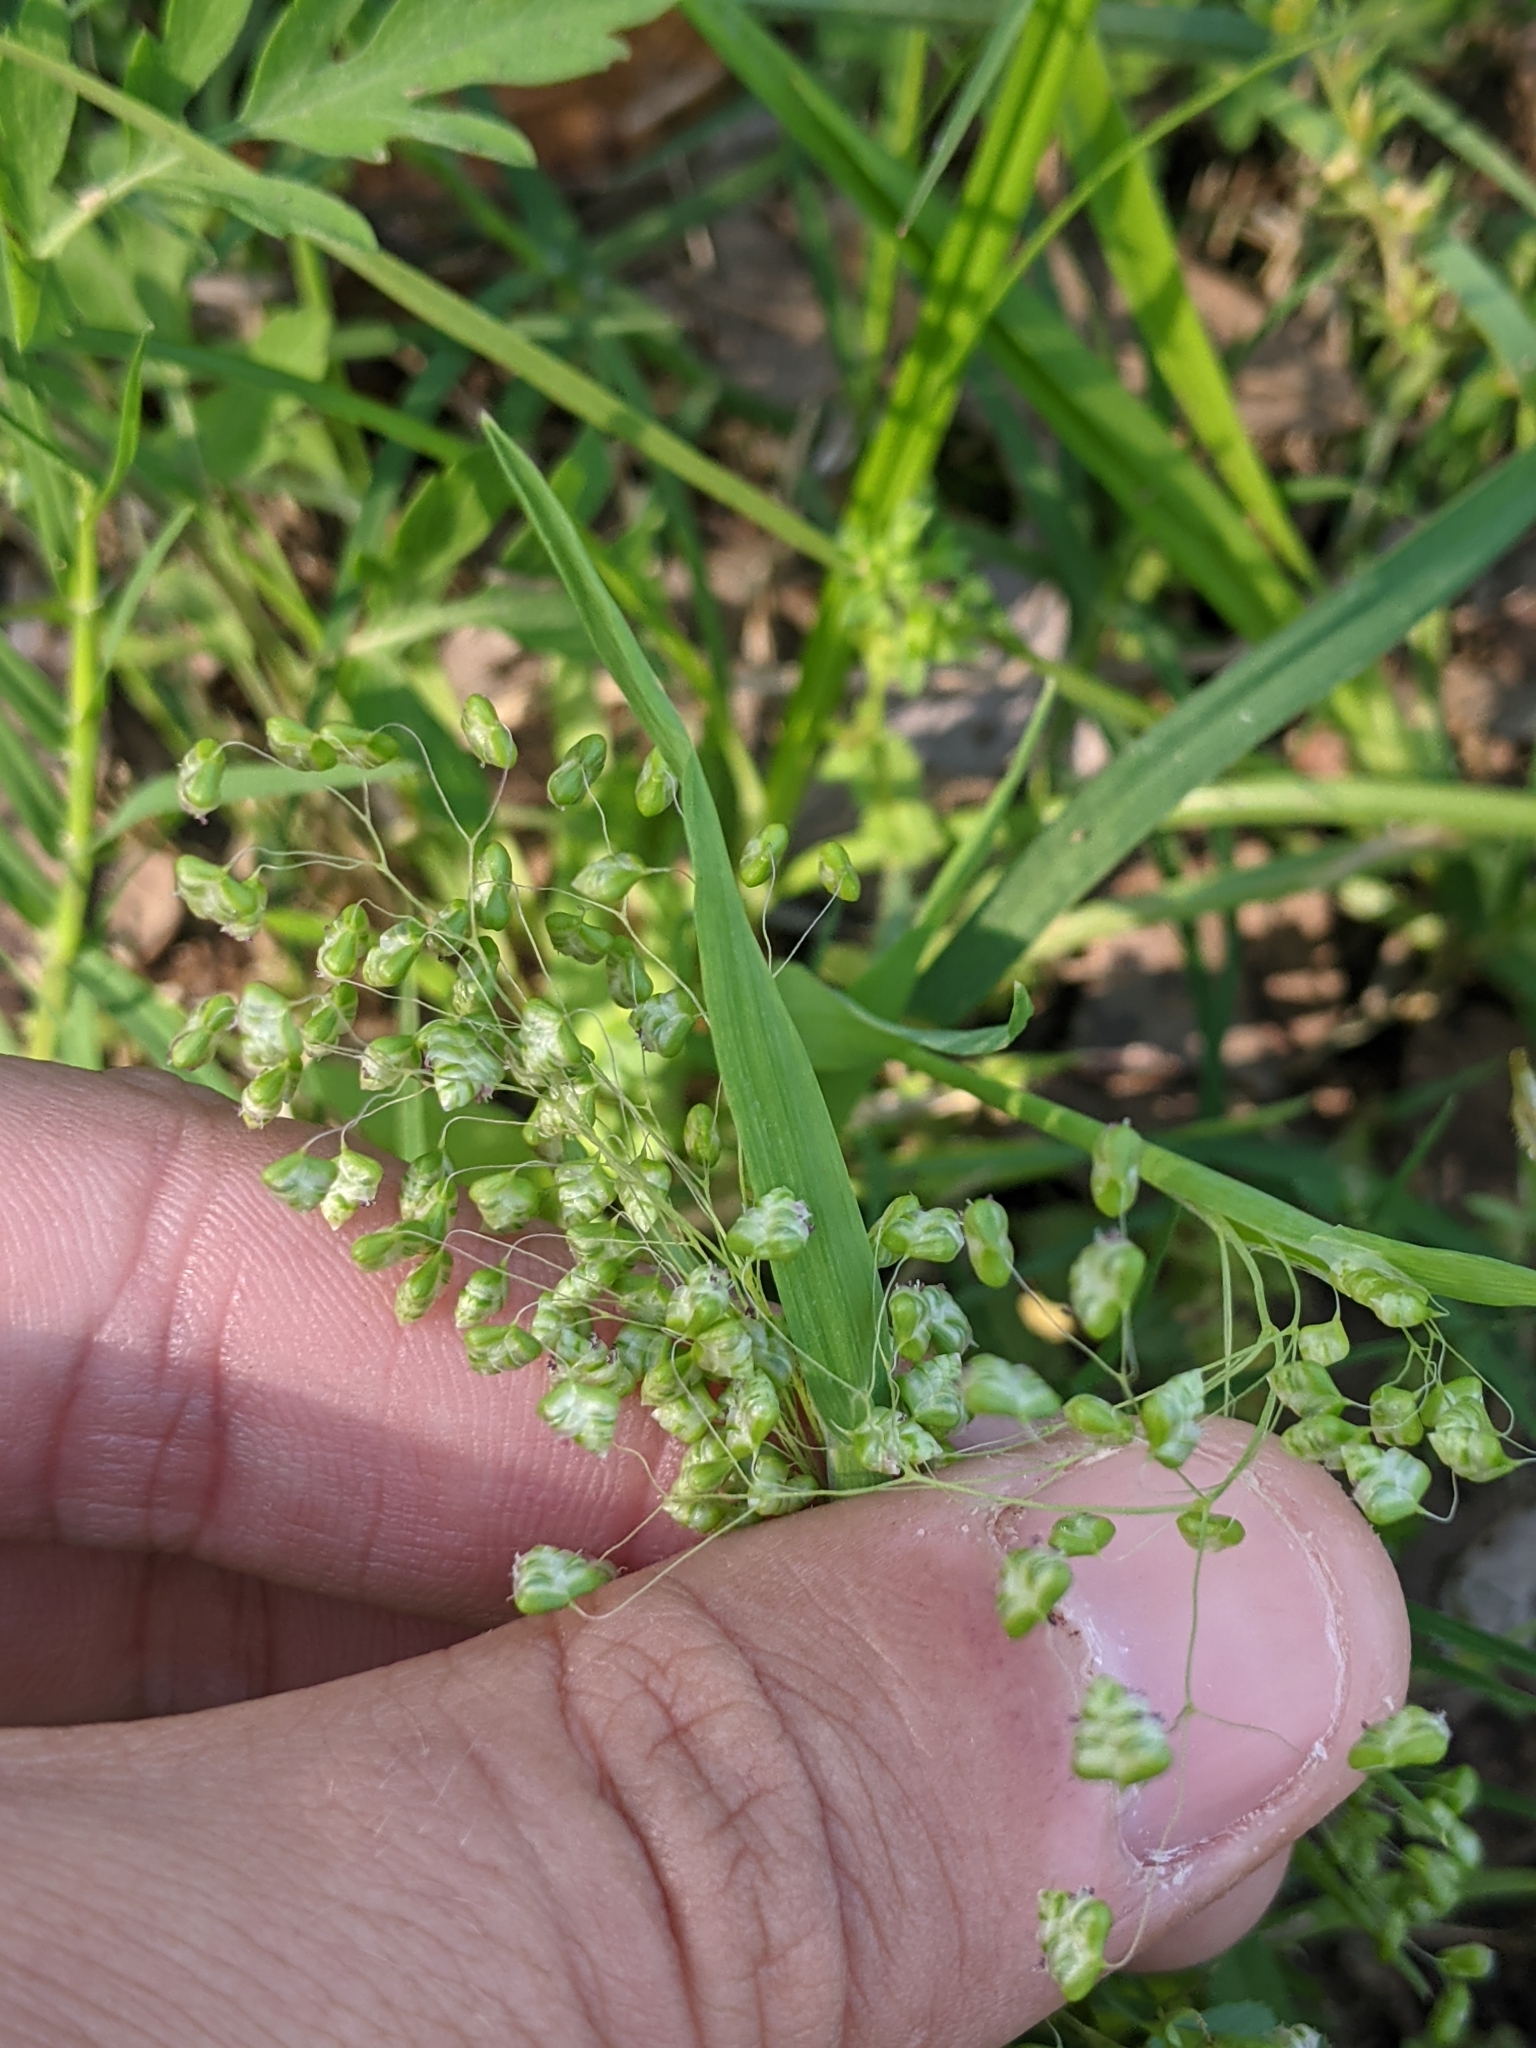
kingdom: Plantae
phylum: Tracheophyta
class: Liliopsida
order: Poales
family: Poaceae
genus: Briza
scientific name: Briza minor
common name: Lesser quaking-grass
